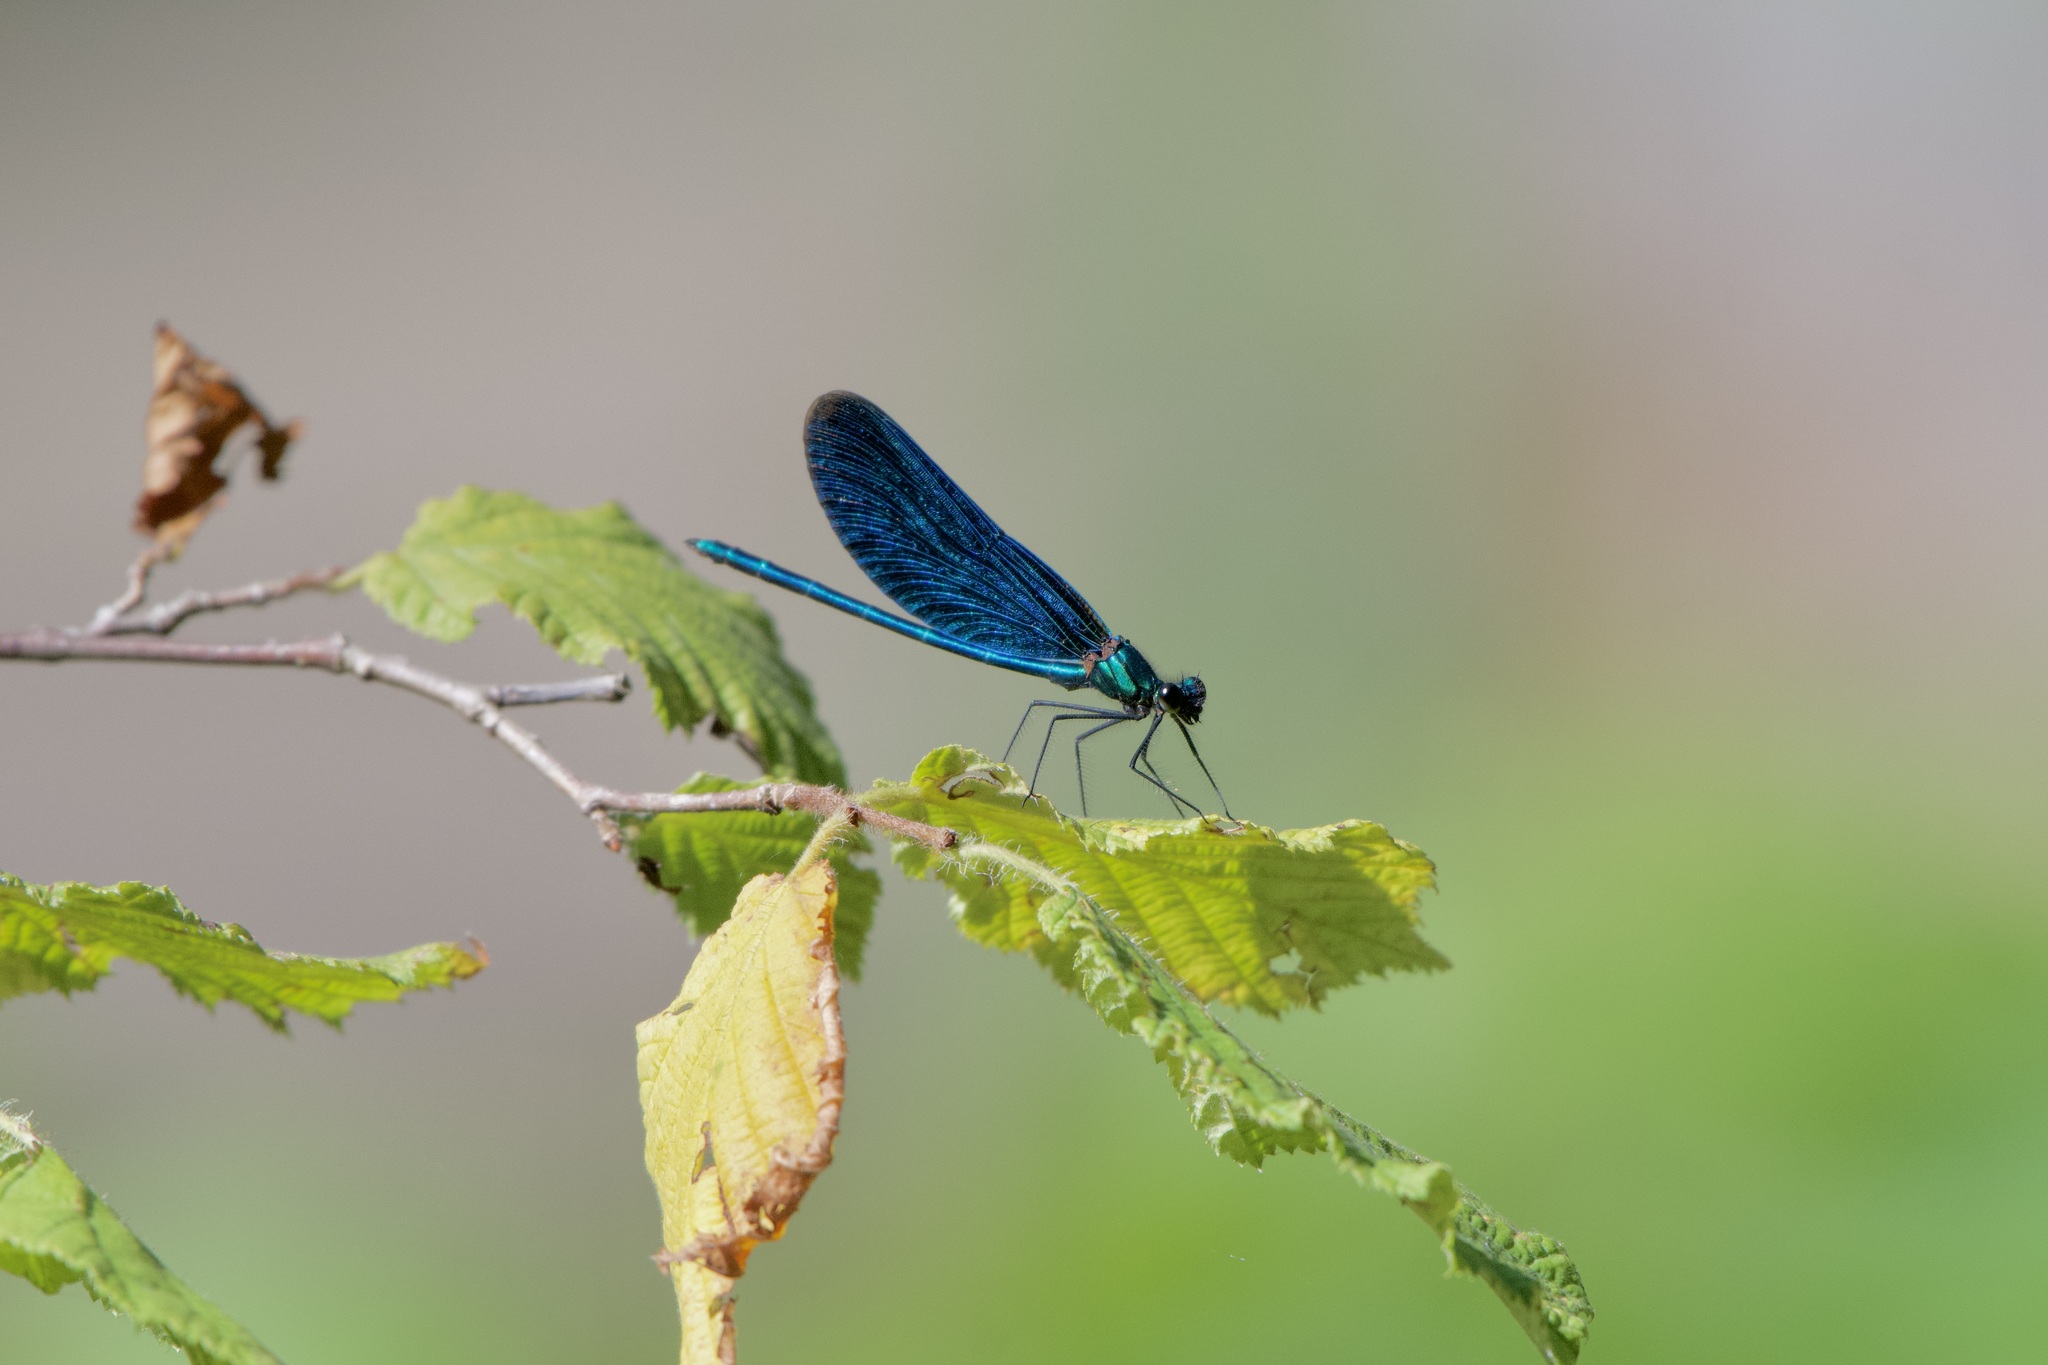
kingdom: Animalia
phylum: Arthropoda
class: Insecta
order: Odonata
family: Calopterygidae
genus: Calopteryx
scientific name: Calopteryx virgo
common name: Beautiful demoiselle
